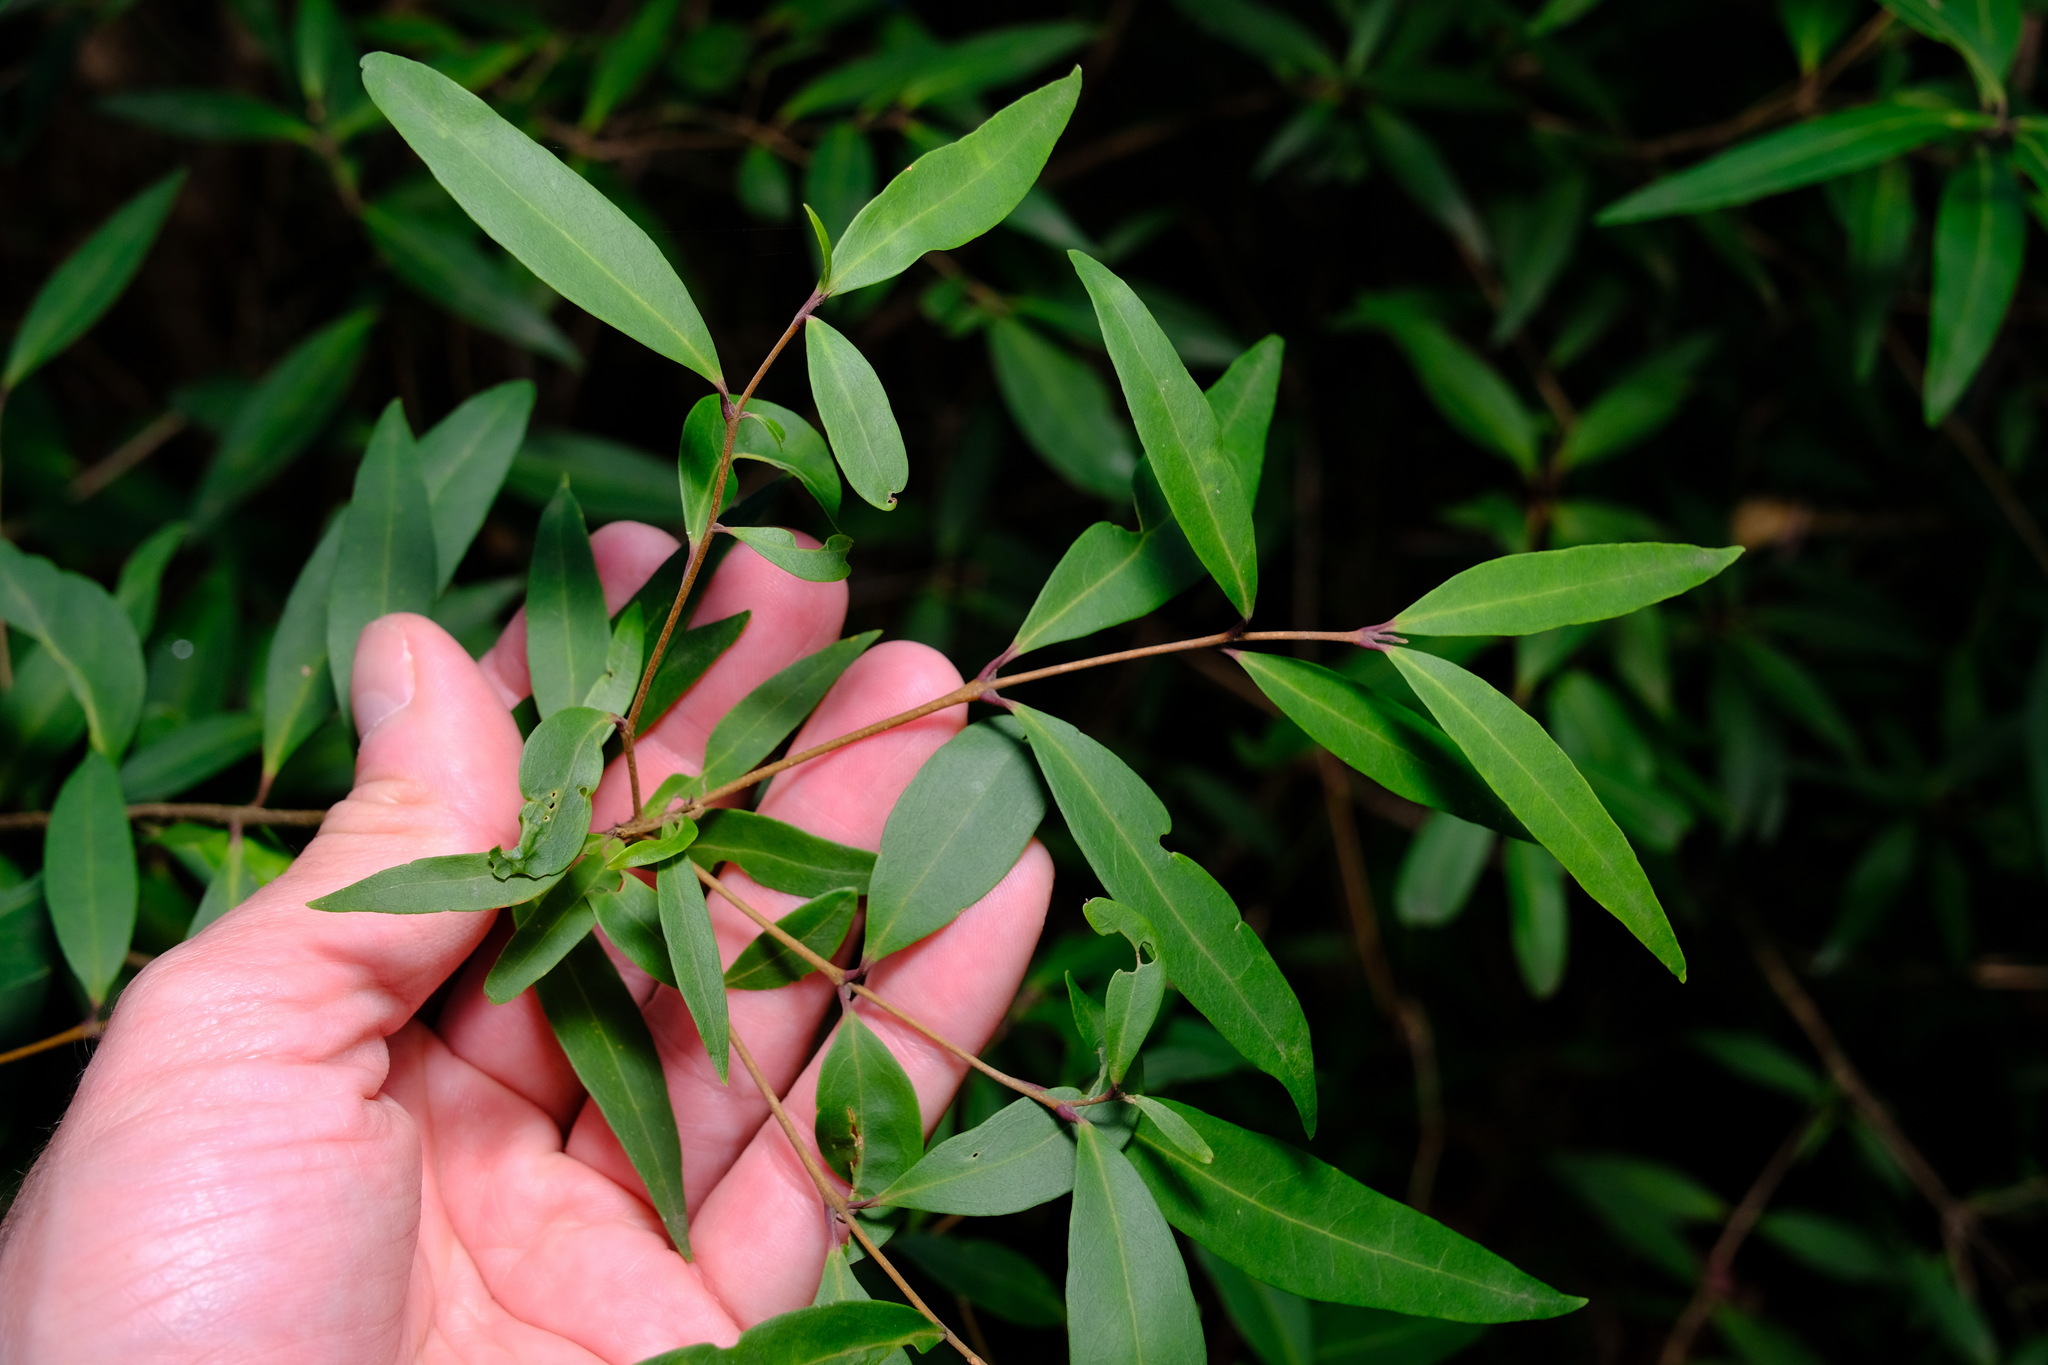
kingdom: Plantae
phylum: Tracheophyta
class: Magnoliopsida
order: Lamiales
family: Oleaceae
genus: Notelaea
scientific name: Notelaea ligustrina
